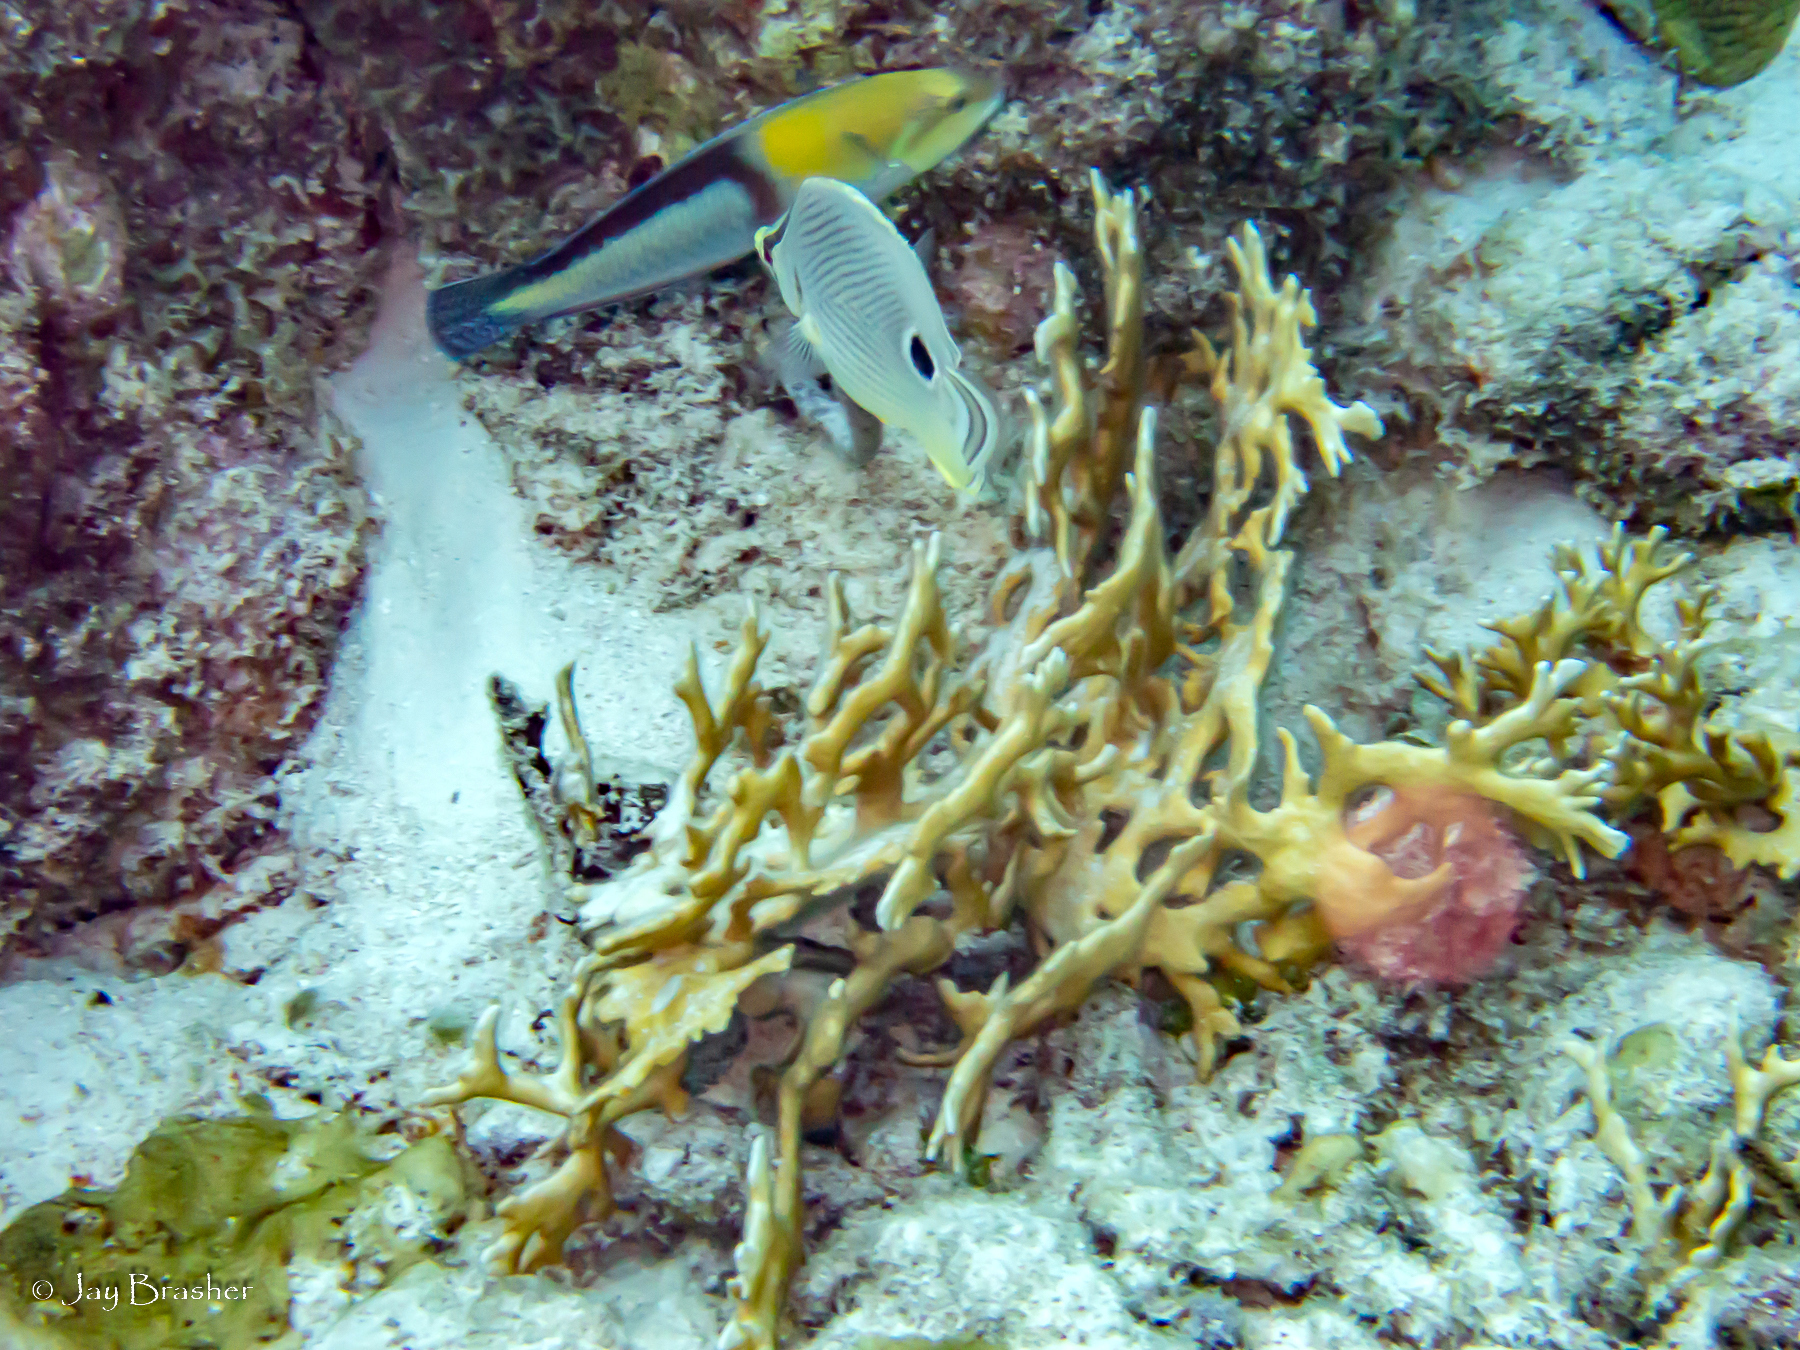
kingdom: Animalia
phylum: Chordata
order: Perciformes
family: Chaetodontidae
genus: Chaetodon
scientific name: Chaetodon capistratus
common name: Kete
